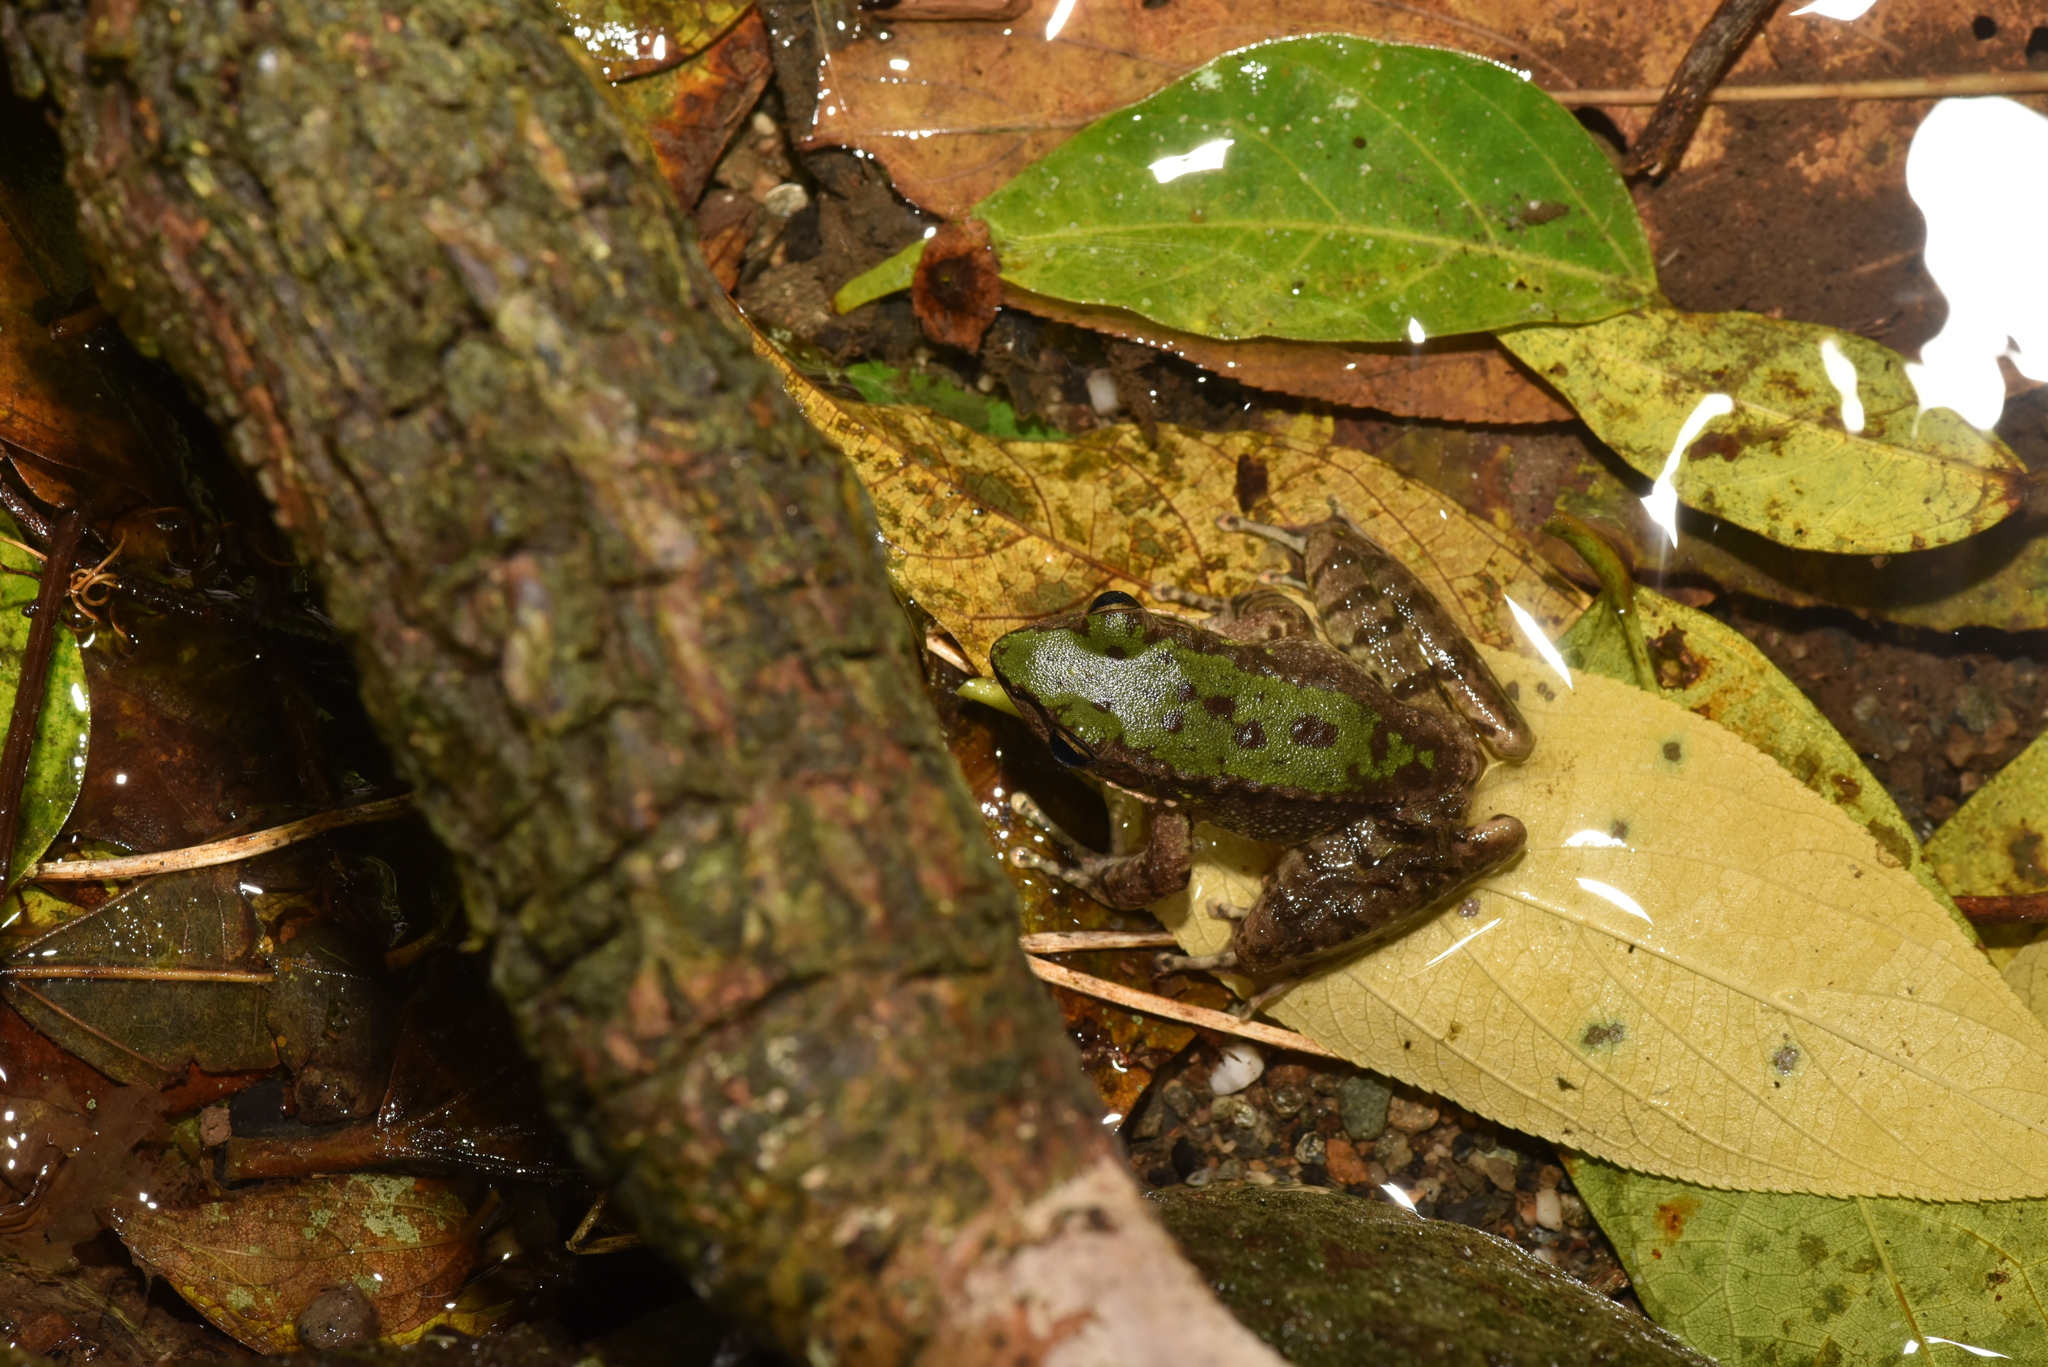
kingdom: Animalia
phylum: Chordata
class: Amphibia
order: Anura
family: Ranidae
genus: Odorrana
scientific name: Odorrana swinhoana
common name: Bangkimtsing frog
